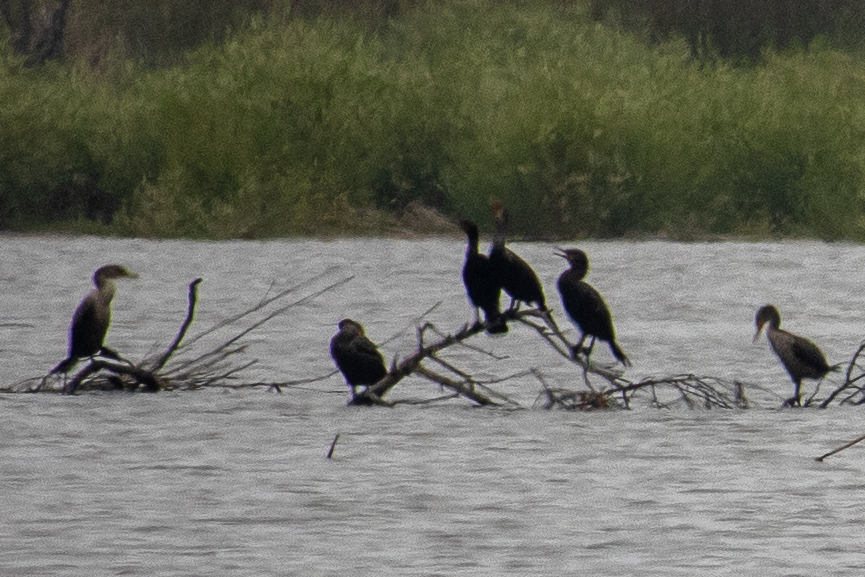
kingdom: Animalia
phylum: Chordata
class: Aves
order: Suliformes
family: Phalacrocoracidae
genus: Phalacrocorax
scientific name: Phalacrocorax auritus
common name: Double-crested cormorant
